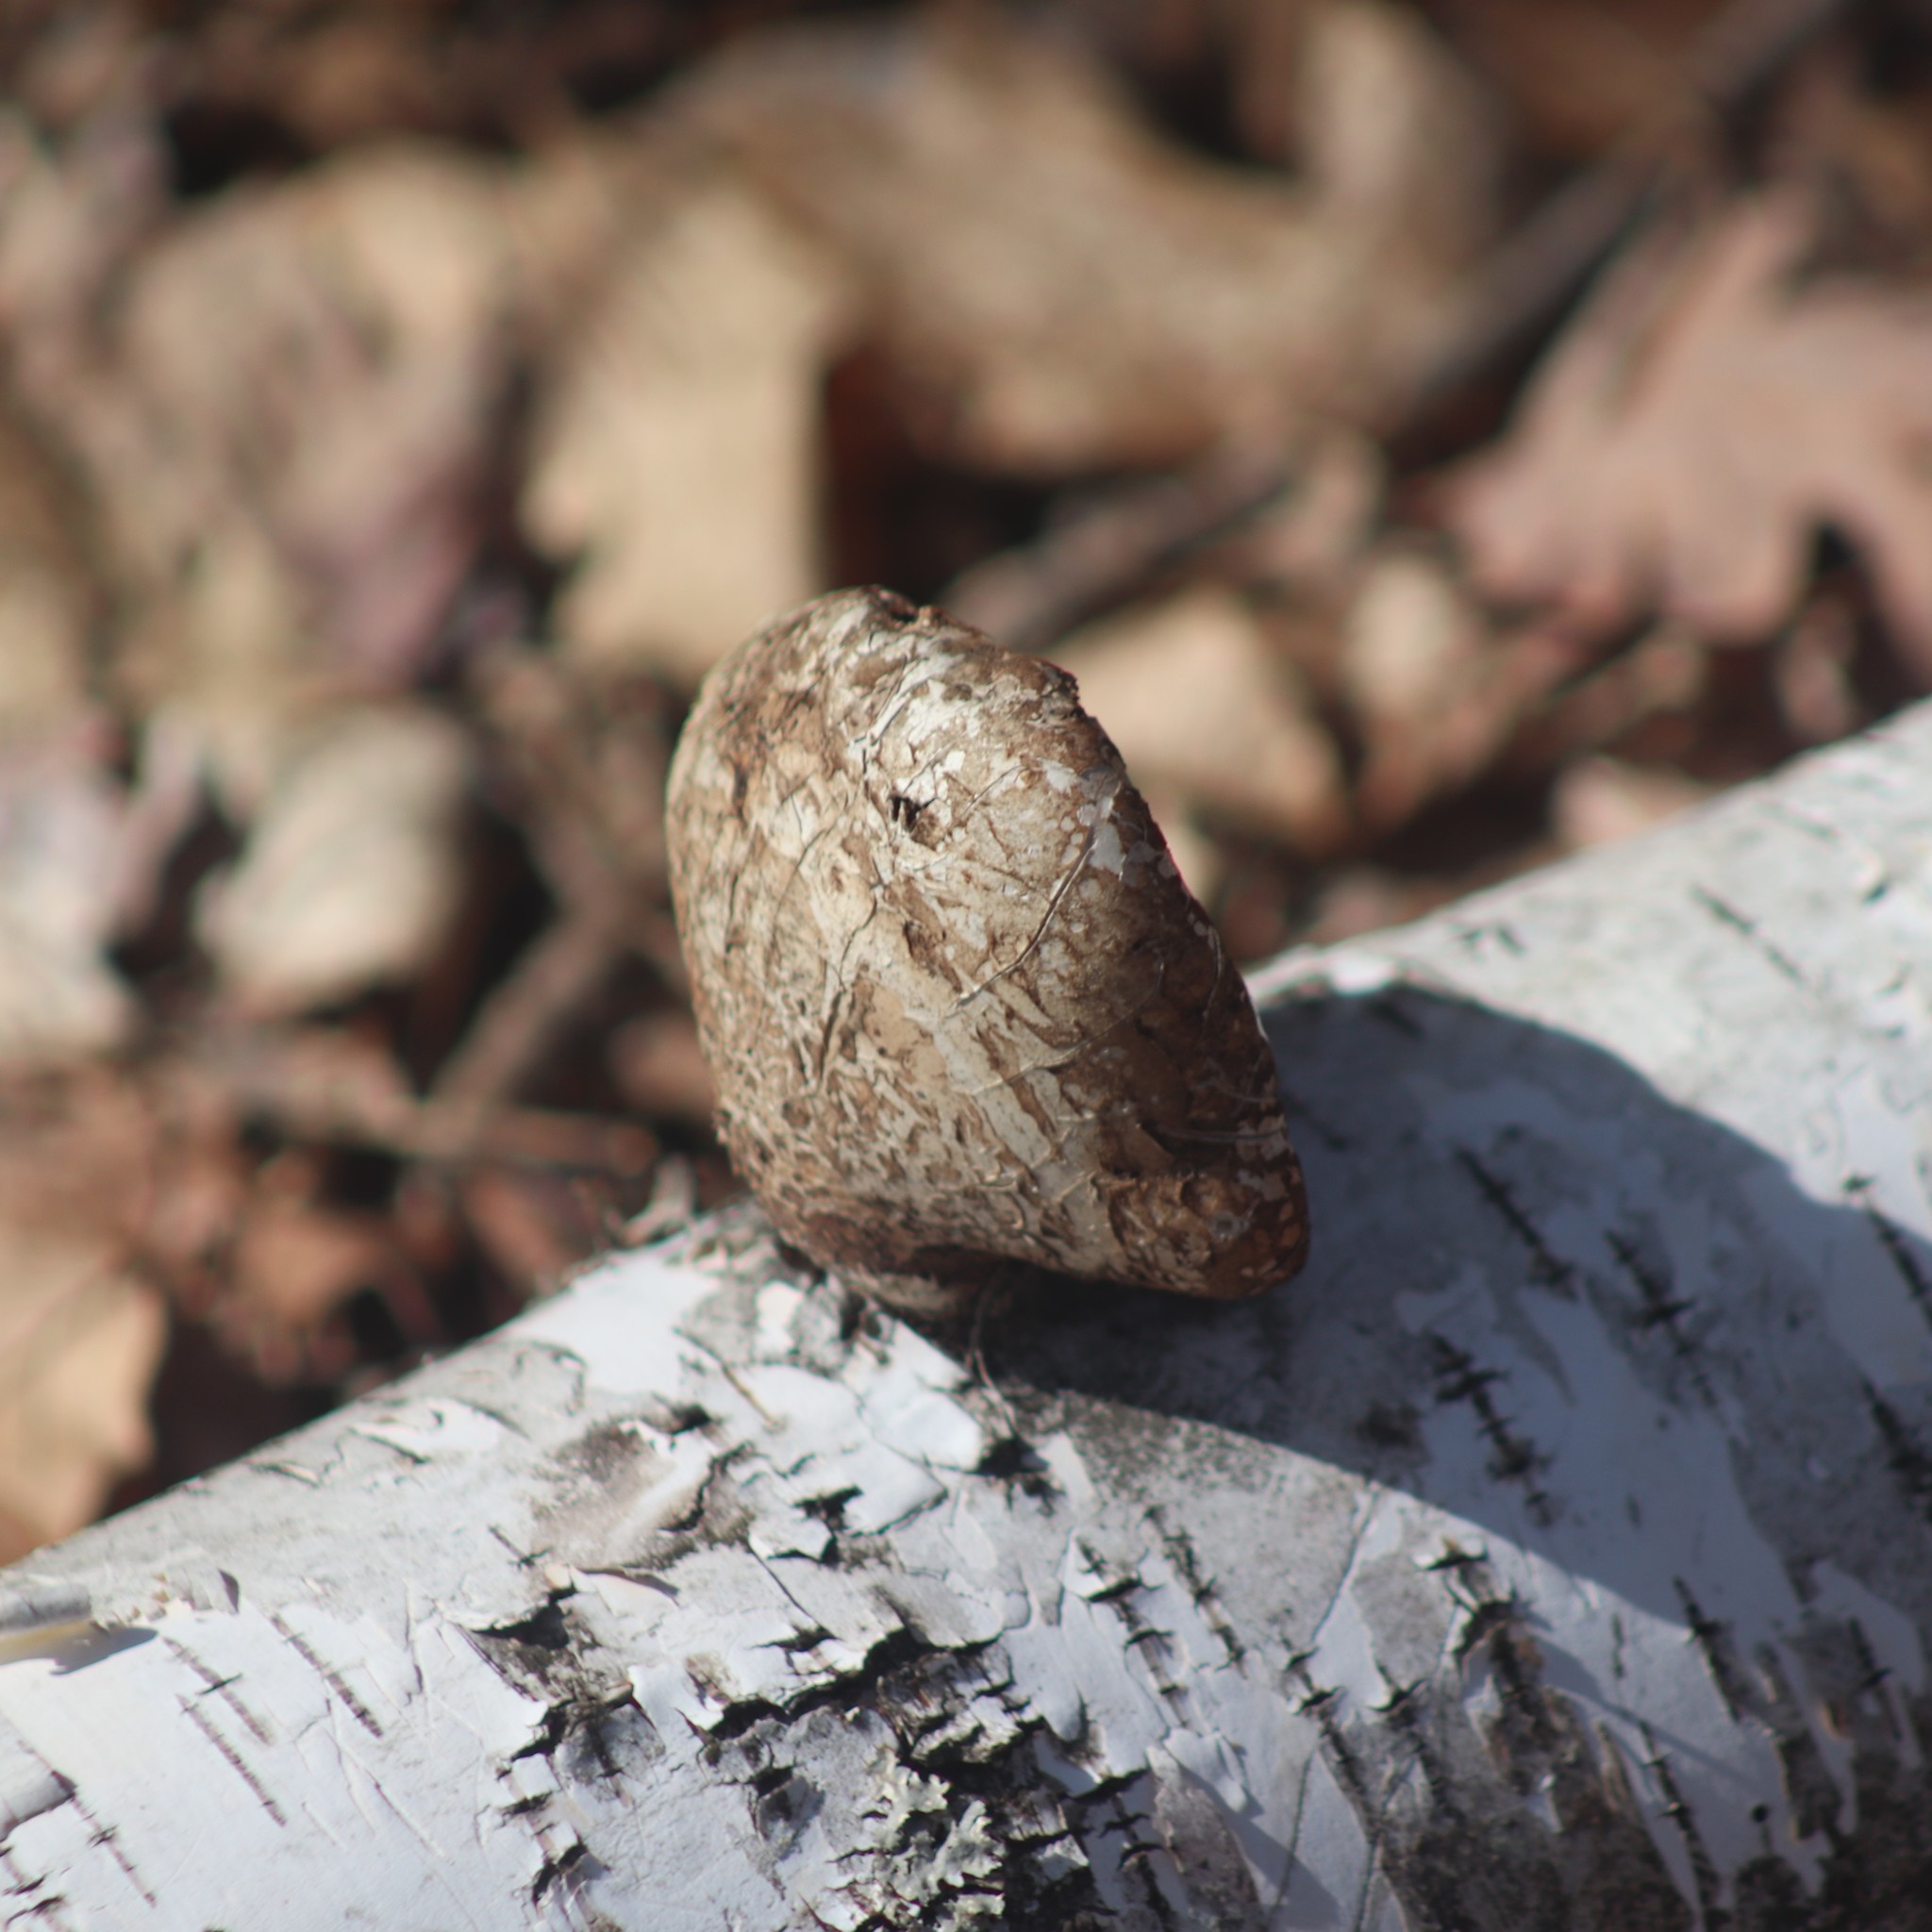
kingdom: Fungi
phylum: Basidiomycota
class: Agaricomycetes
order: Polyporales
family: Fomitopsidaceae
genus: Fomitopsis
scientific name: Fomitopsis betulina
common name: Birch polypore
